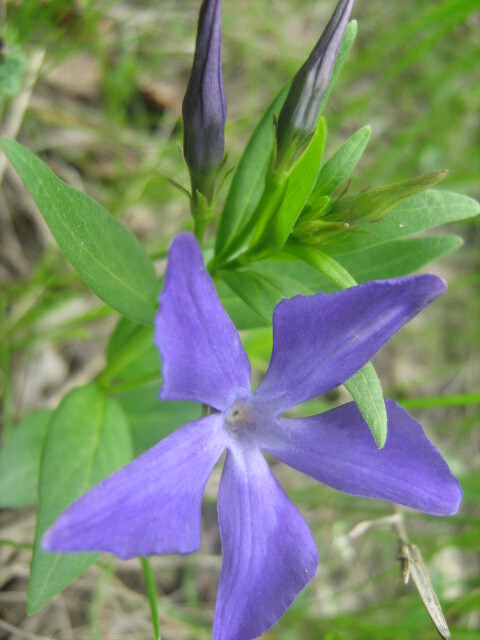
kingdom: Plantae
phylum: Tracheophyta
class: Magnoliopsida
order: Gentianales
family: Apocynaceae
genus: Vinca
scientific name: Vinca herbacea
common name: Herbaceous periwinkle
